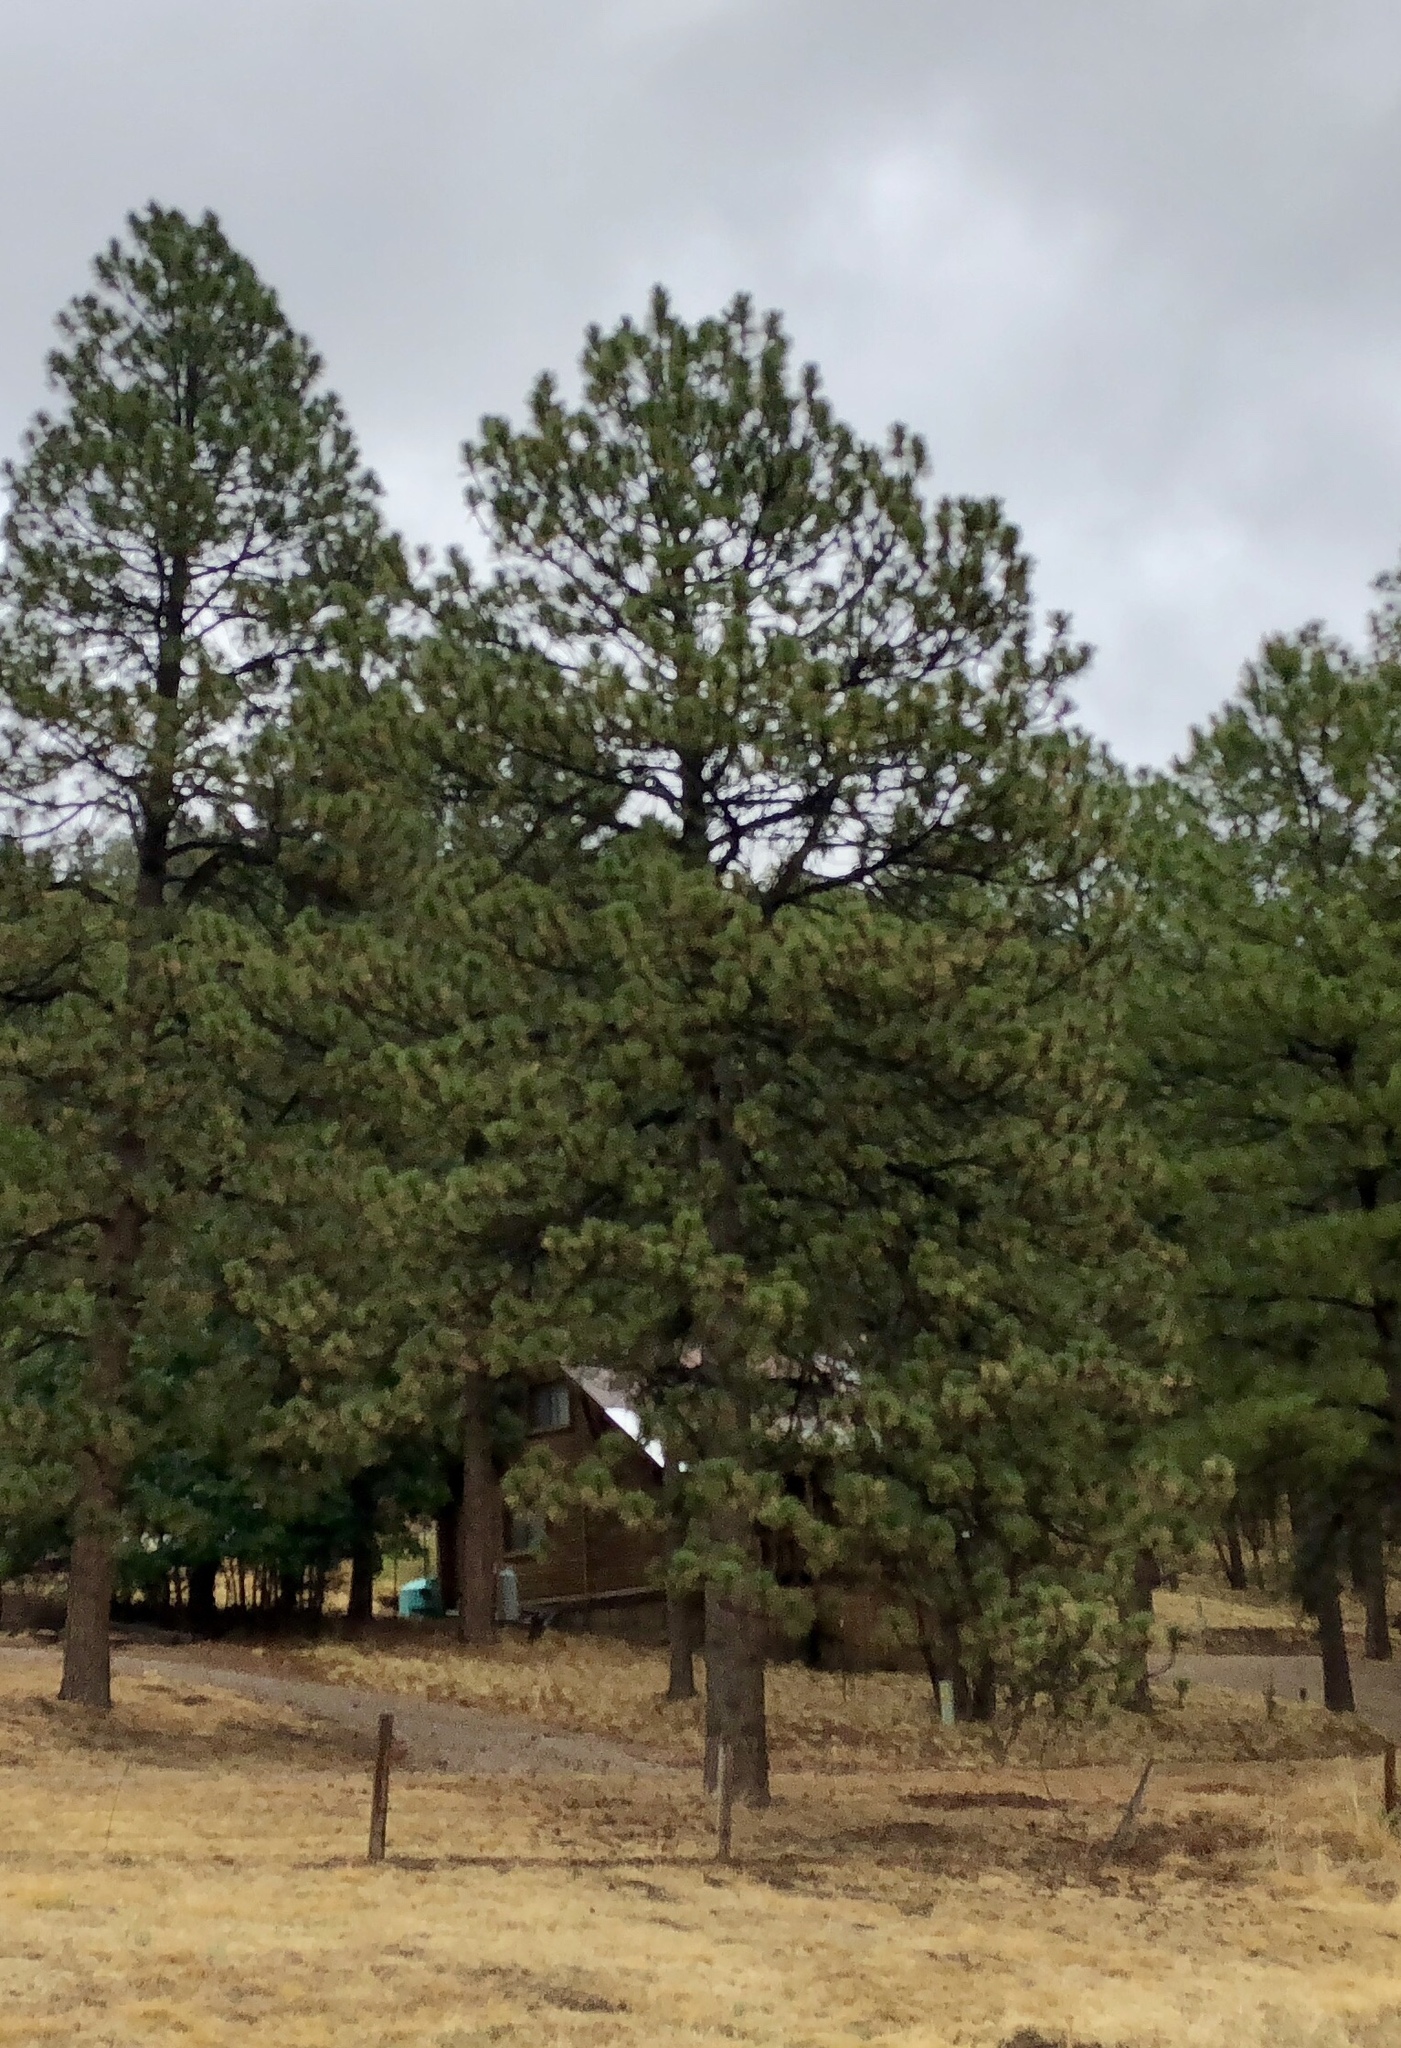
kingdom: Plantae
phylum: Tracheophyta
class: Pinopsida
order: Pinales
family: Pinaceae
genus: Pinus
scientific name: Pinus ponderosa
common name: Western yellow-pine
